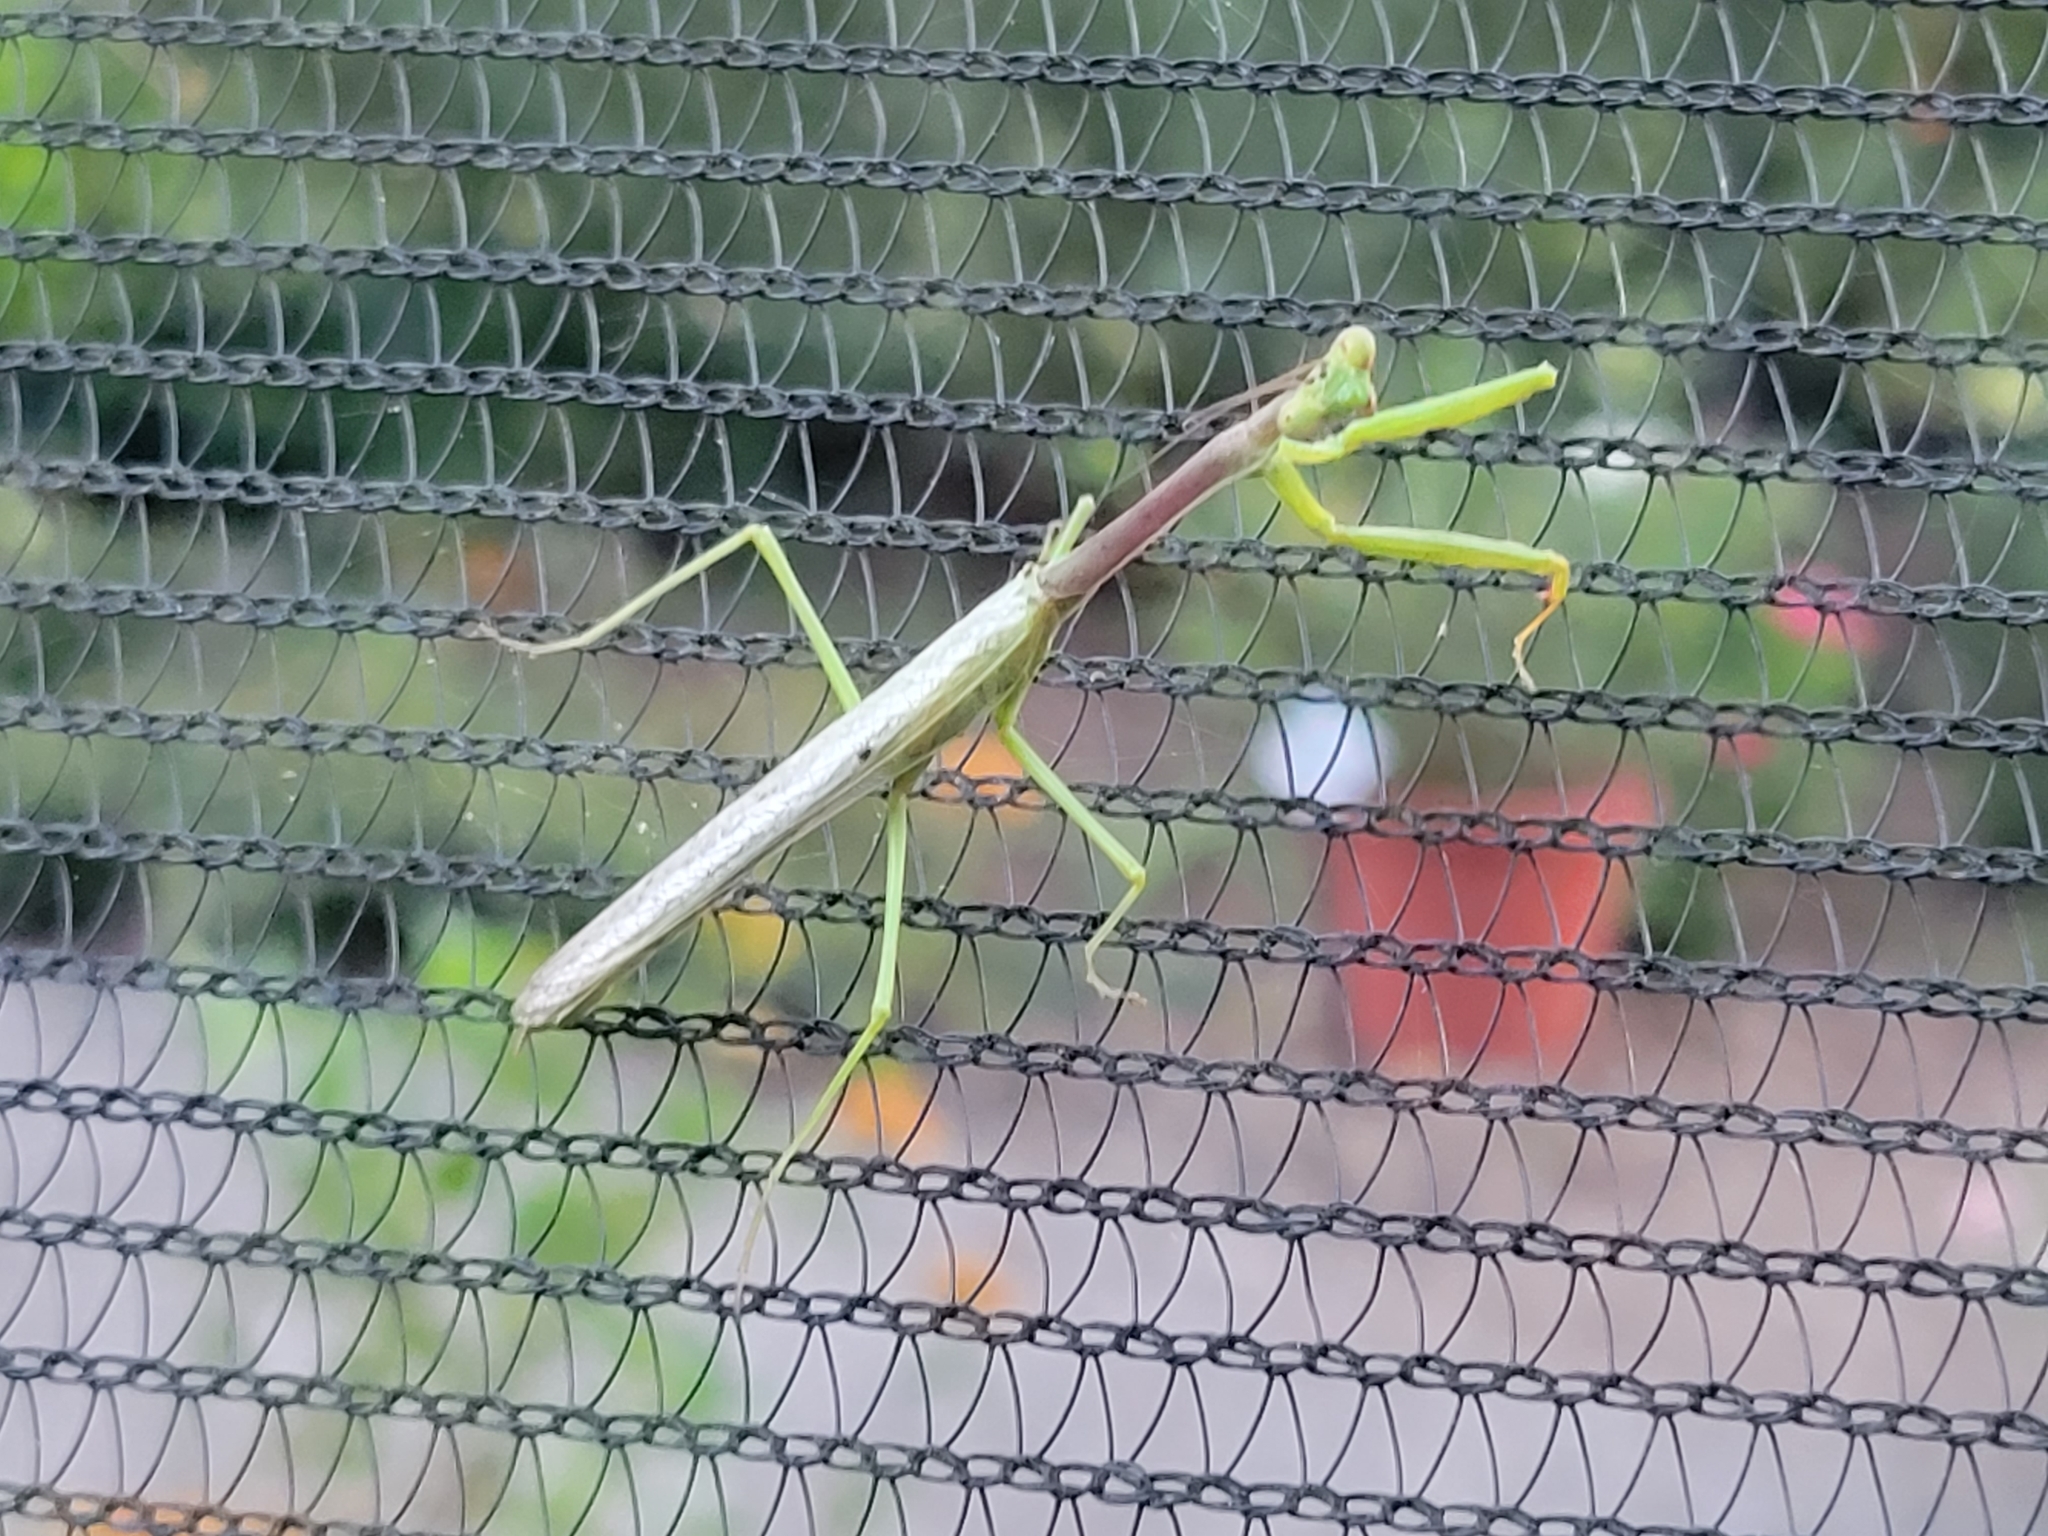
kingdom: Animalia
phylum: Arthropoda
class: Insecta
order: Mantodea
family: Mantidae
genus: Stagmomantis
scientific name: Stagmomantis carolina
